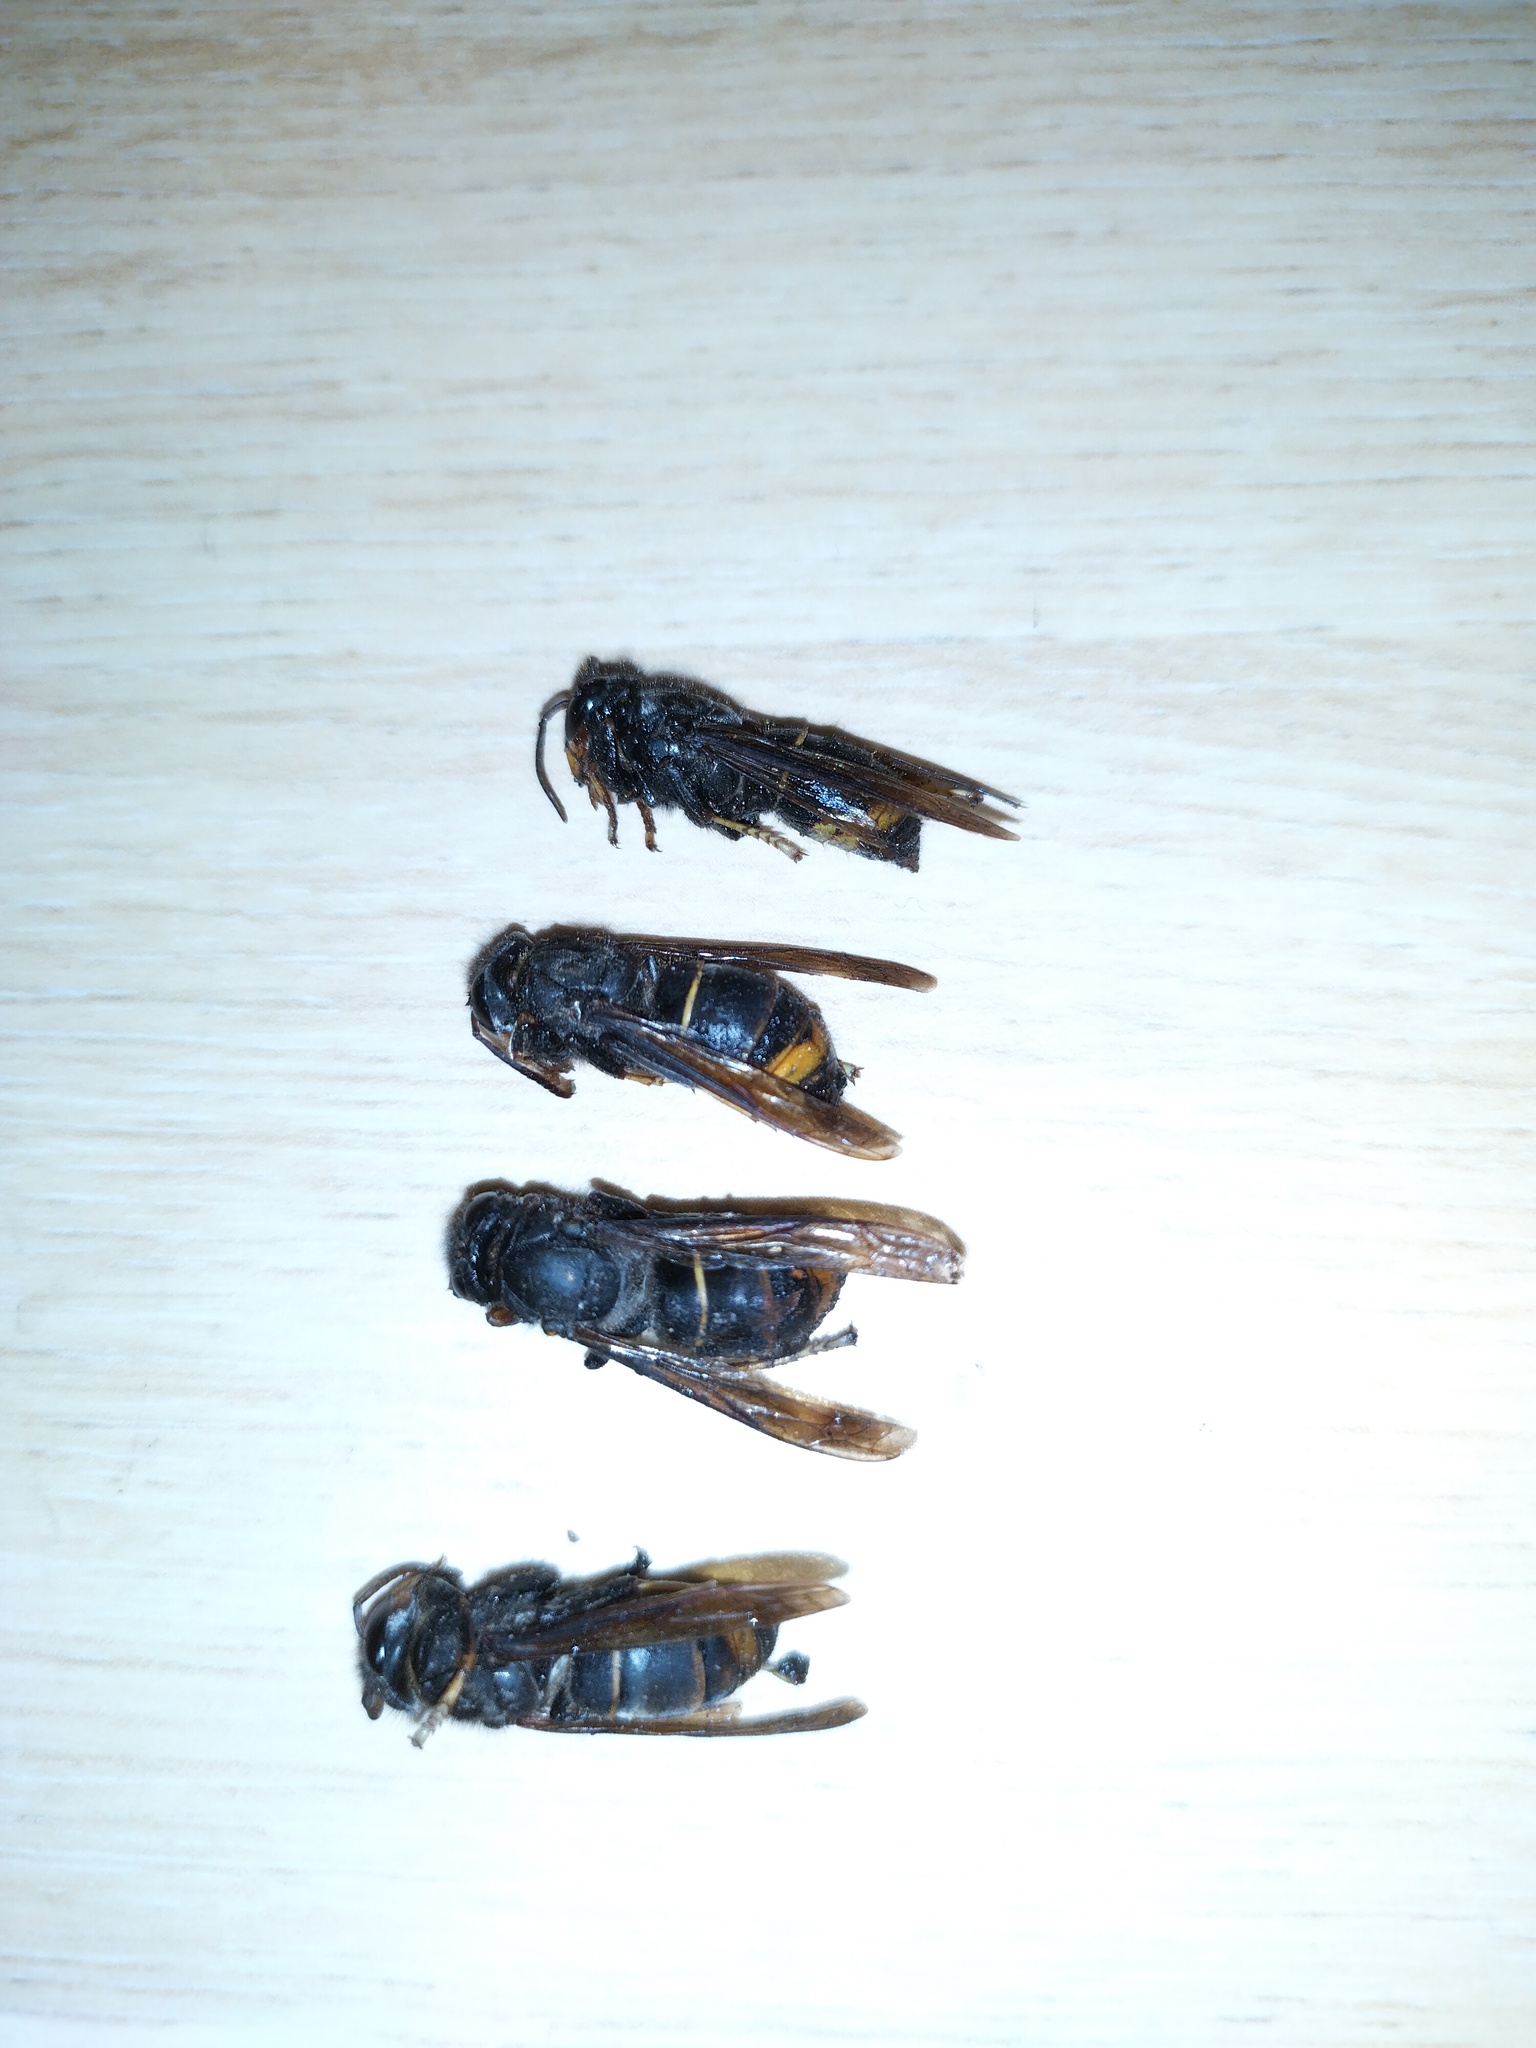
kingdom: Animalia
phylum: Arthropoda
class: Insecta
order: Hymenoptera
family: Vespidae
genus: Vespa
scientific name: Vespa velutina
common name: Asian hornet
